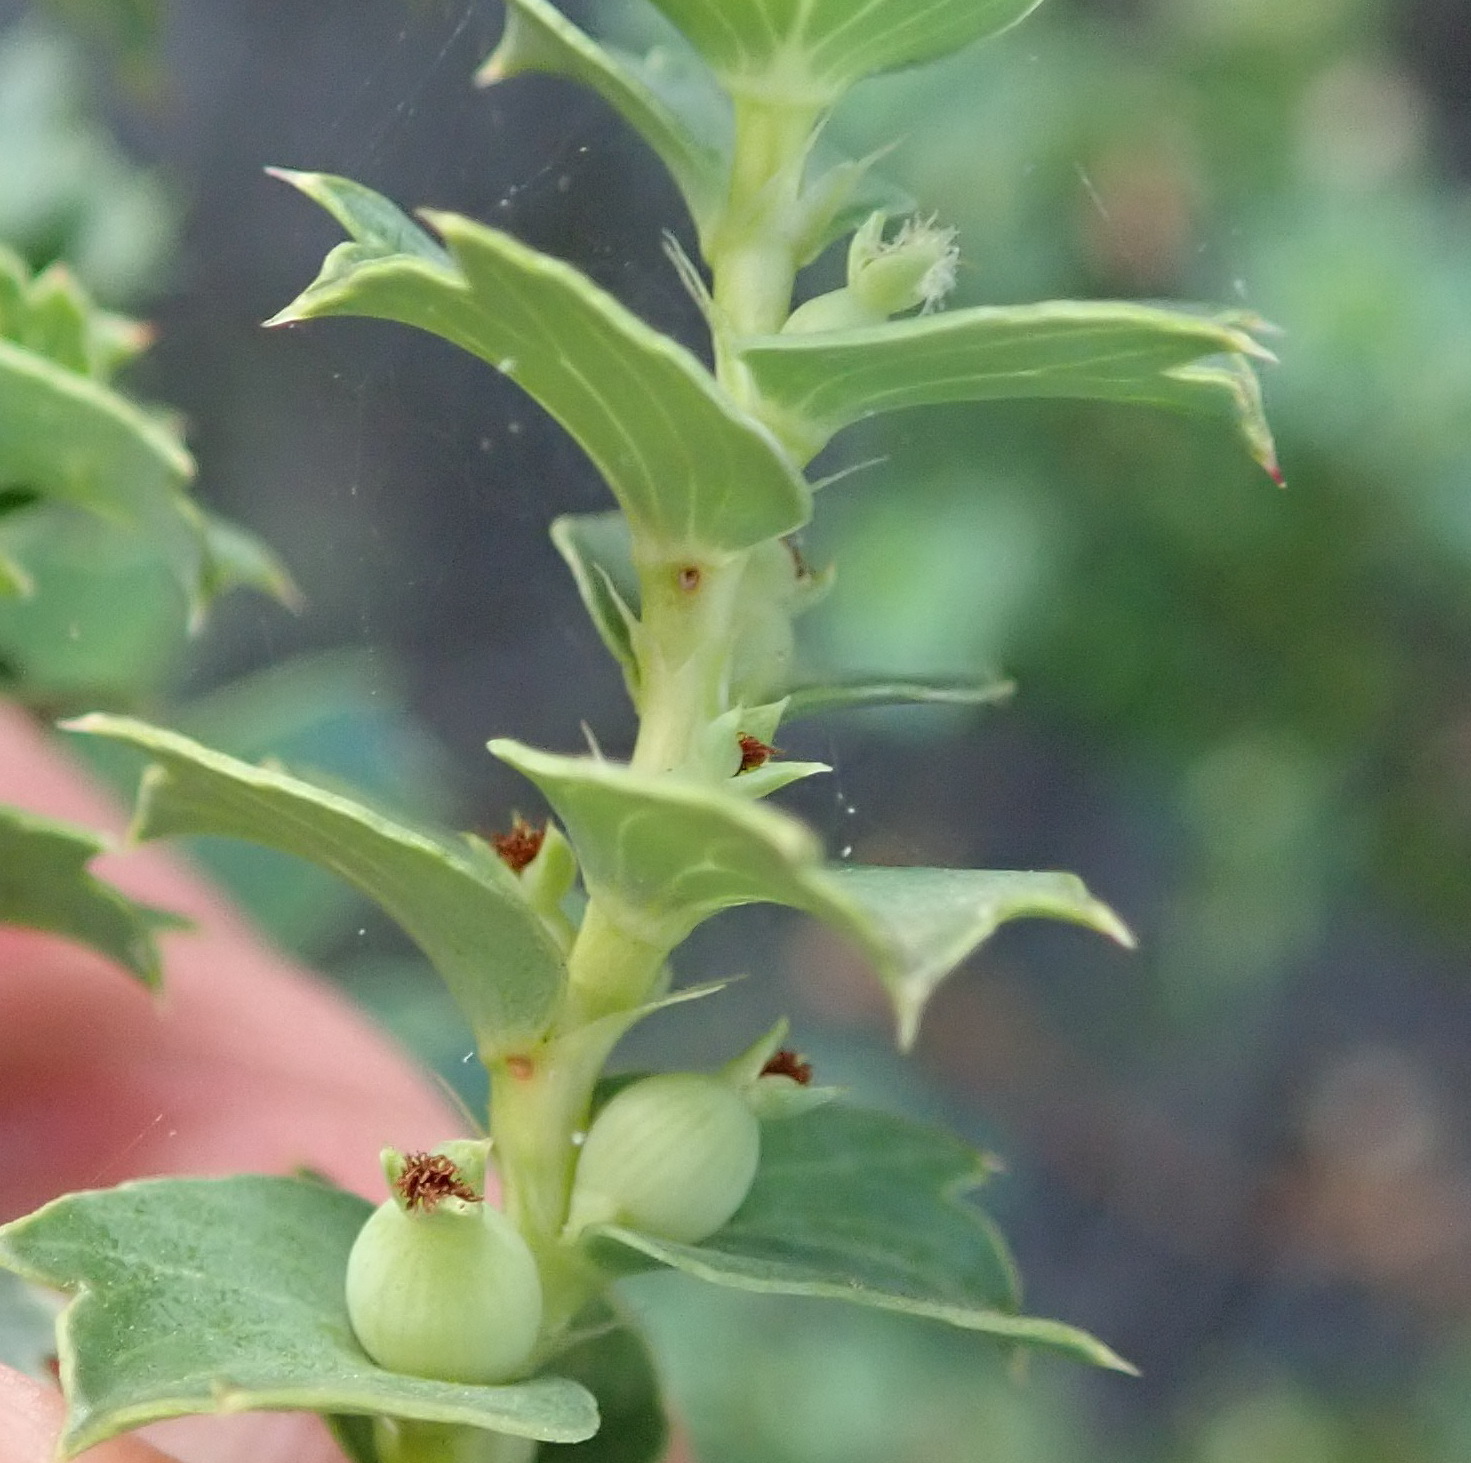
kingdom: Plantae
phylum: Tracheophyta
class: Magnoliopsida
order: Rosales
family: Rosaceae
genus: Cliffortia
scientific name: Cliffortia schlechteri
